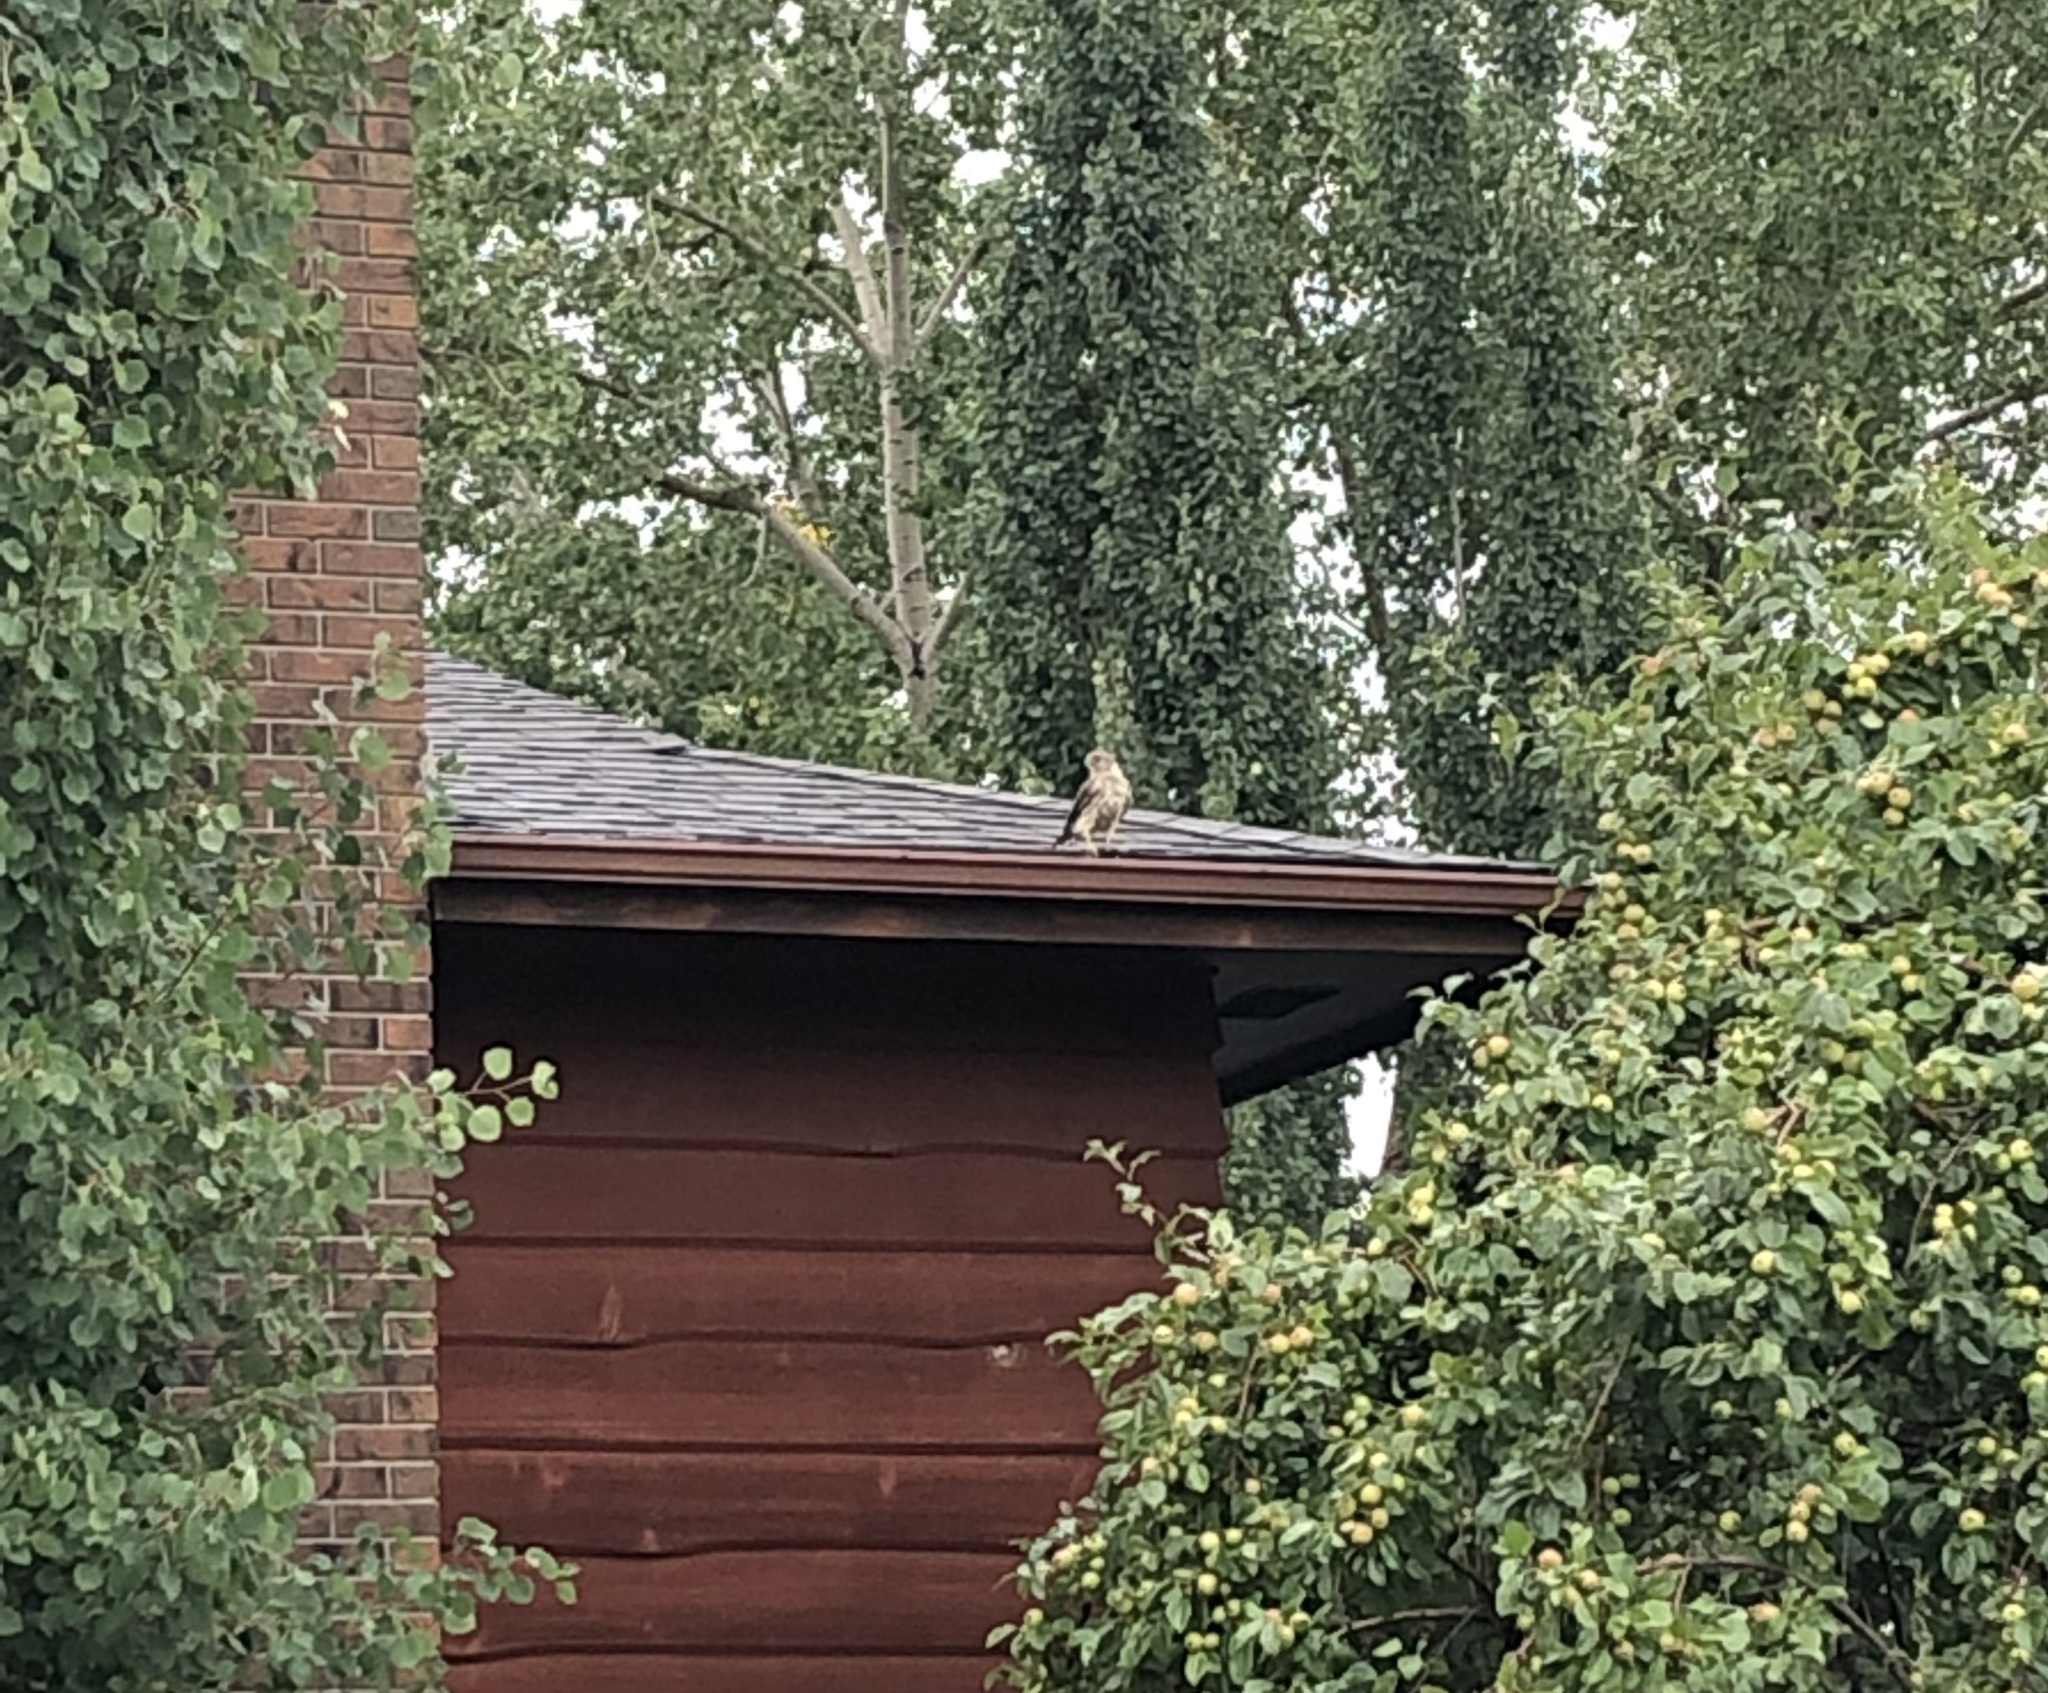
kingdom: Animalia
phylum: Chordata
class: Aves
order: Falconiformes
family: Falconidae
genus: Falco
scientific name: Falco columbarius
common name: Merlin
